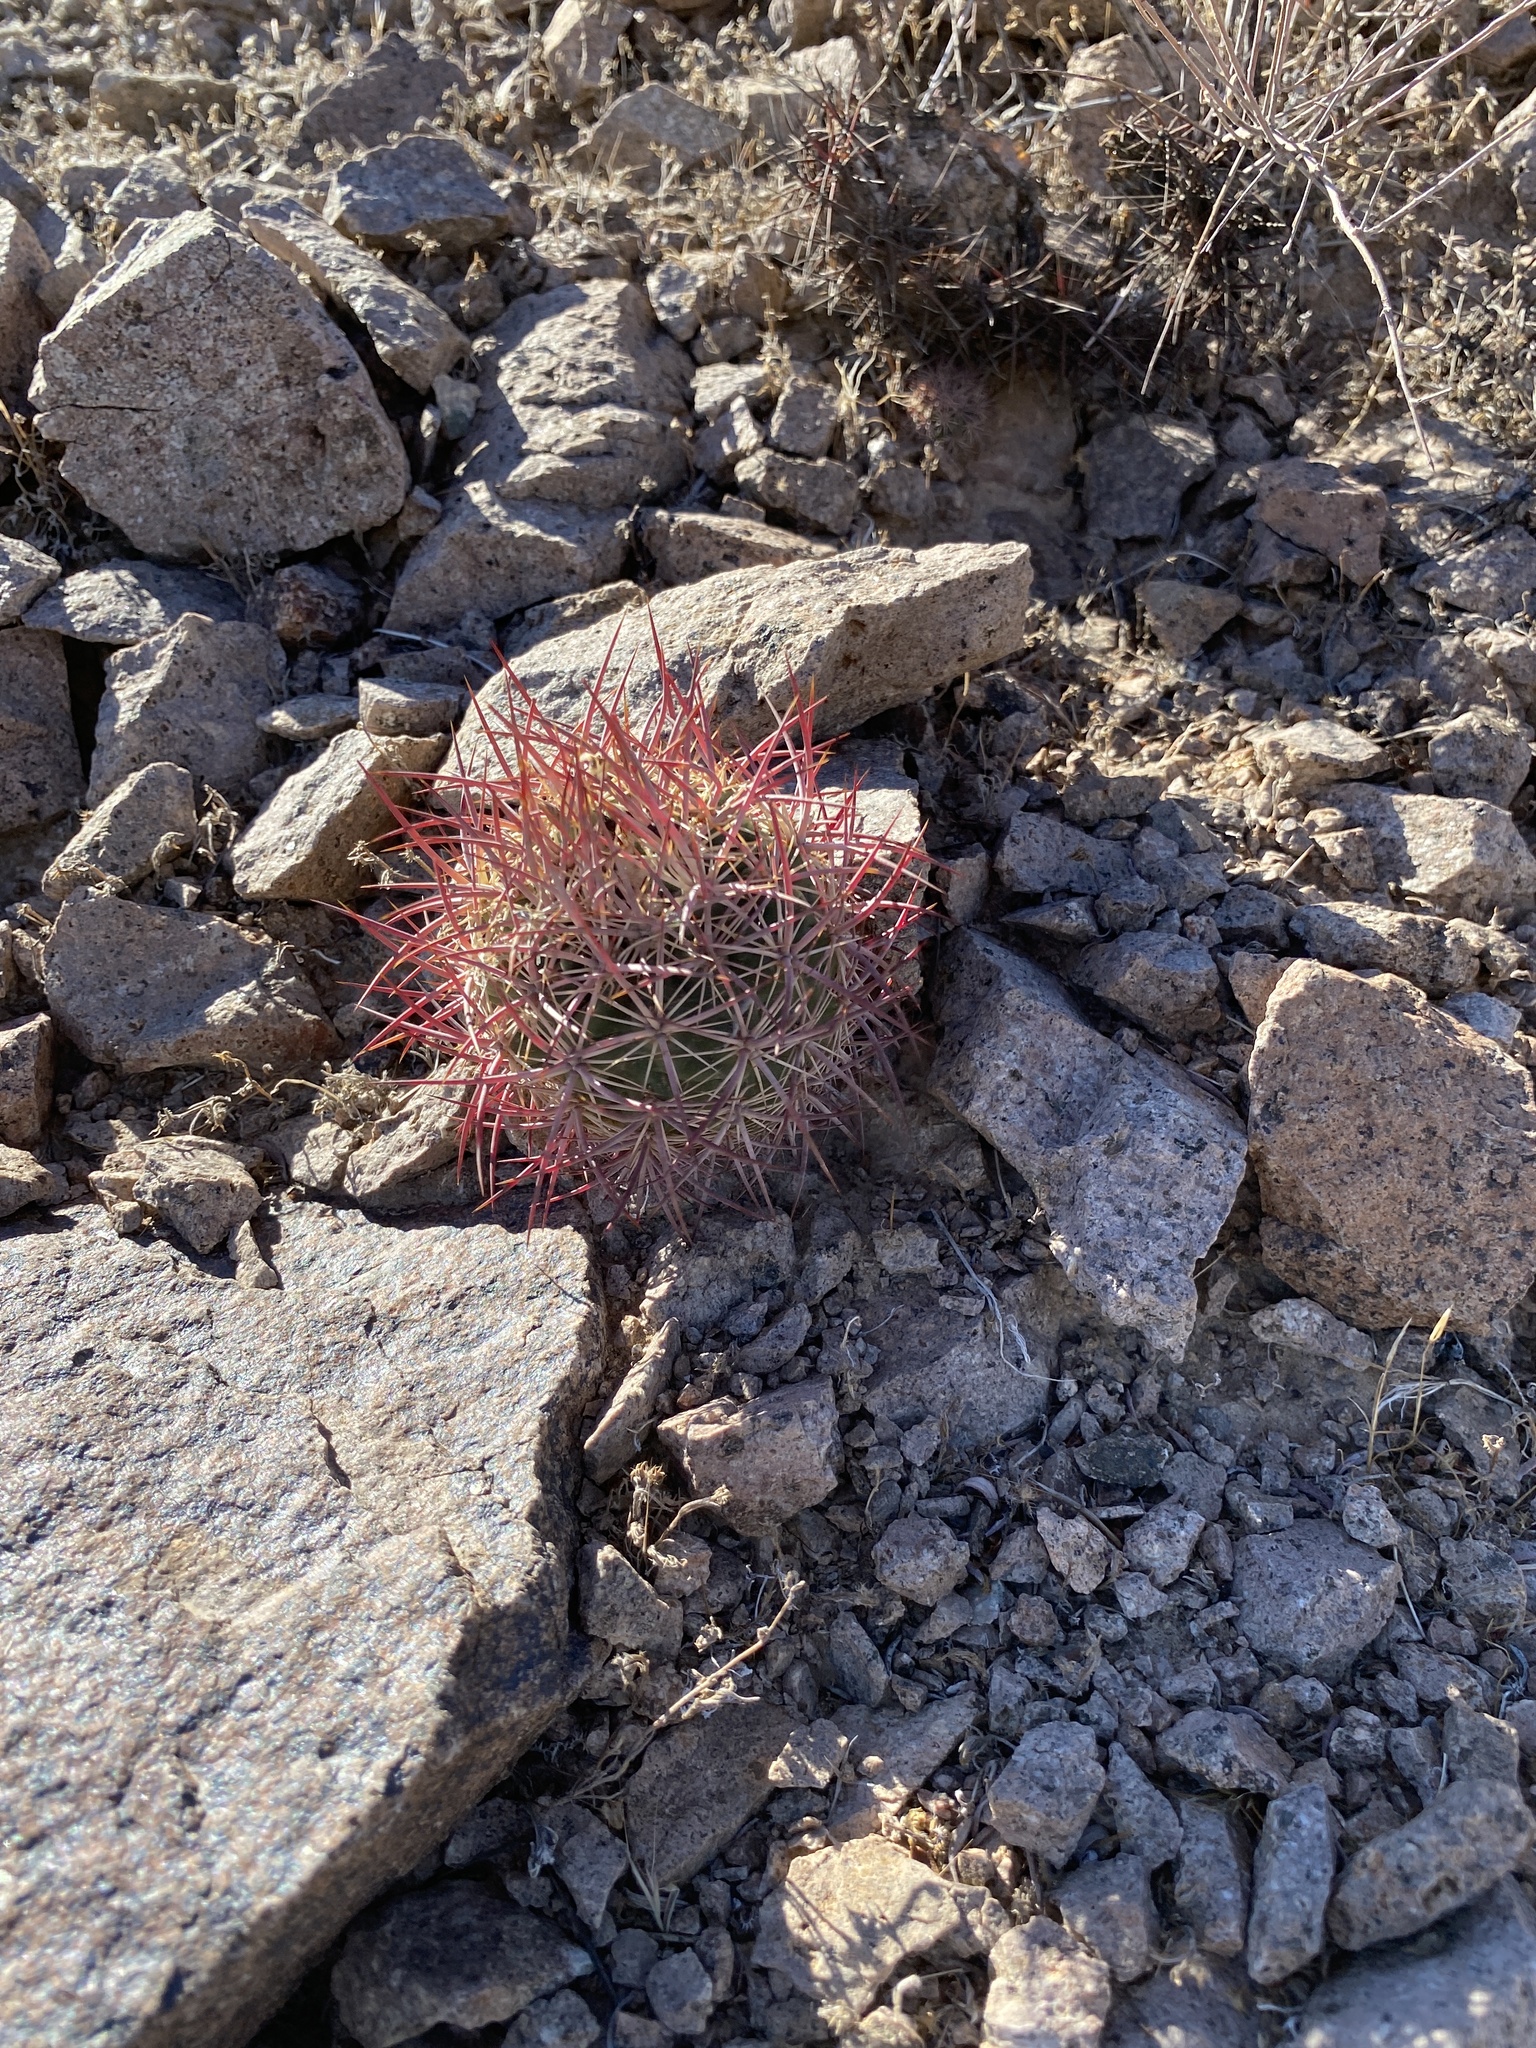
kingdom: Plantae
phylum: Tracheophyta
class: Magnoliopsida
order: Caryophyllales
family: Cactaceae
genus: Sclerocactus
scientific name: Sclerocactus johnsonii
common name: Eight-spine fishhook cactus
